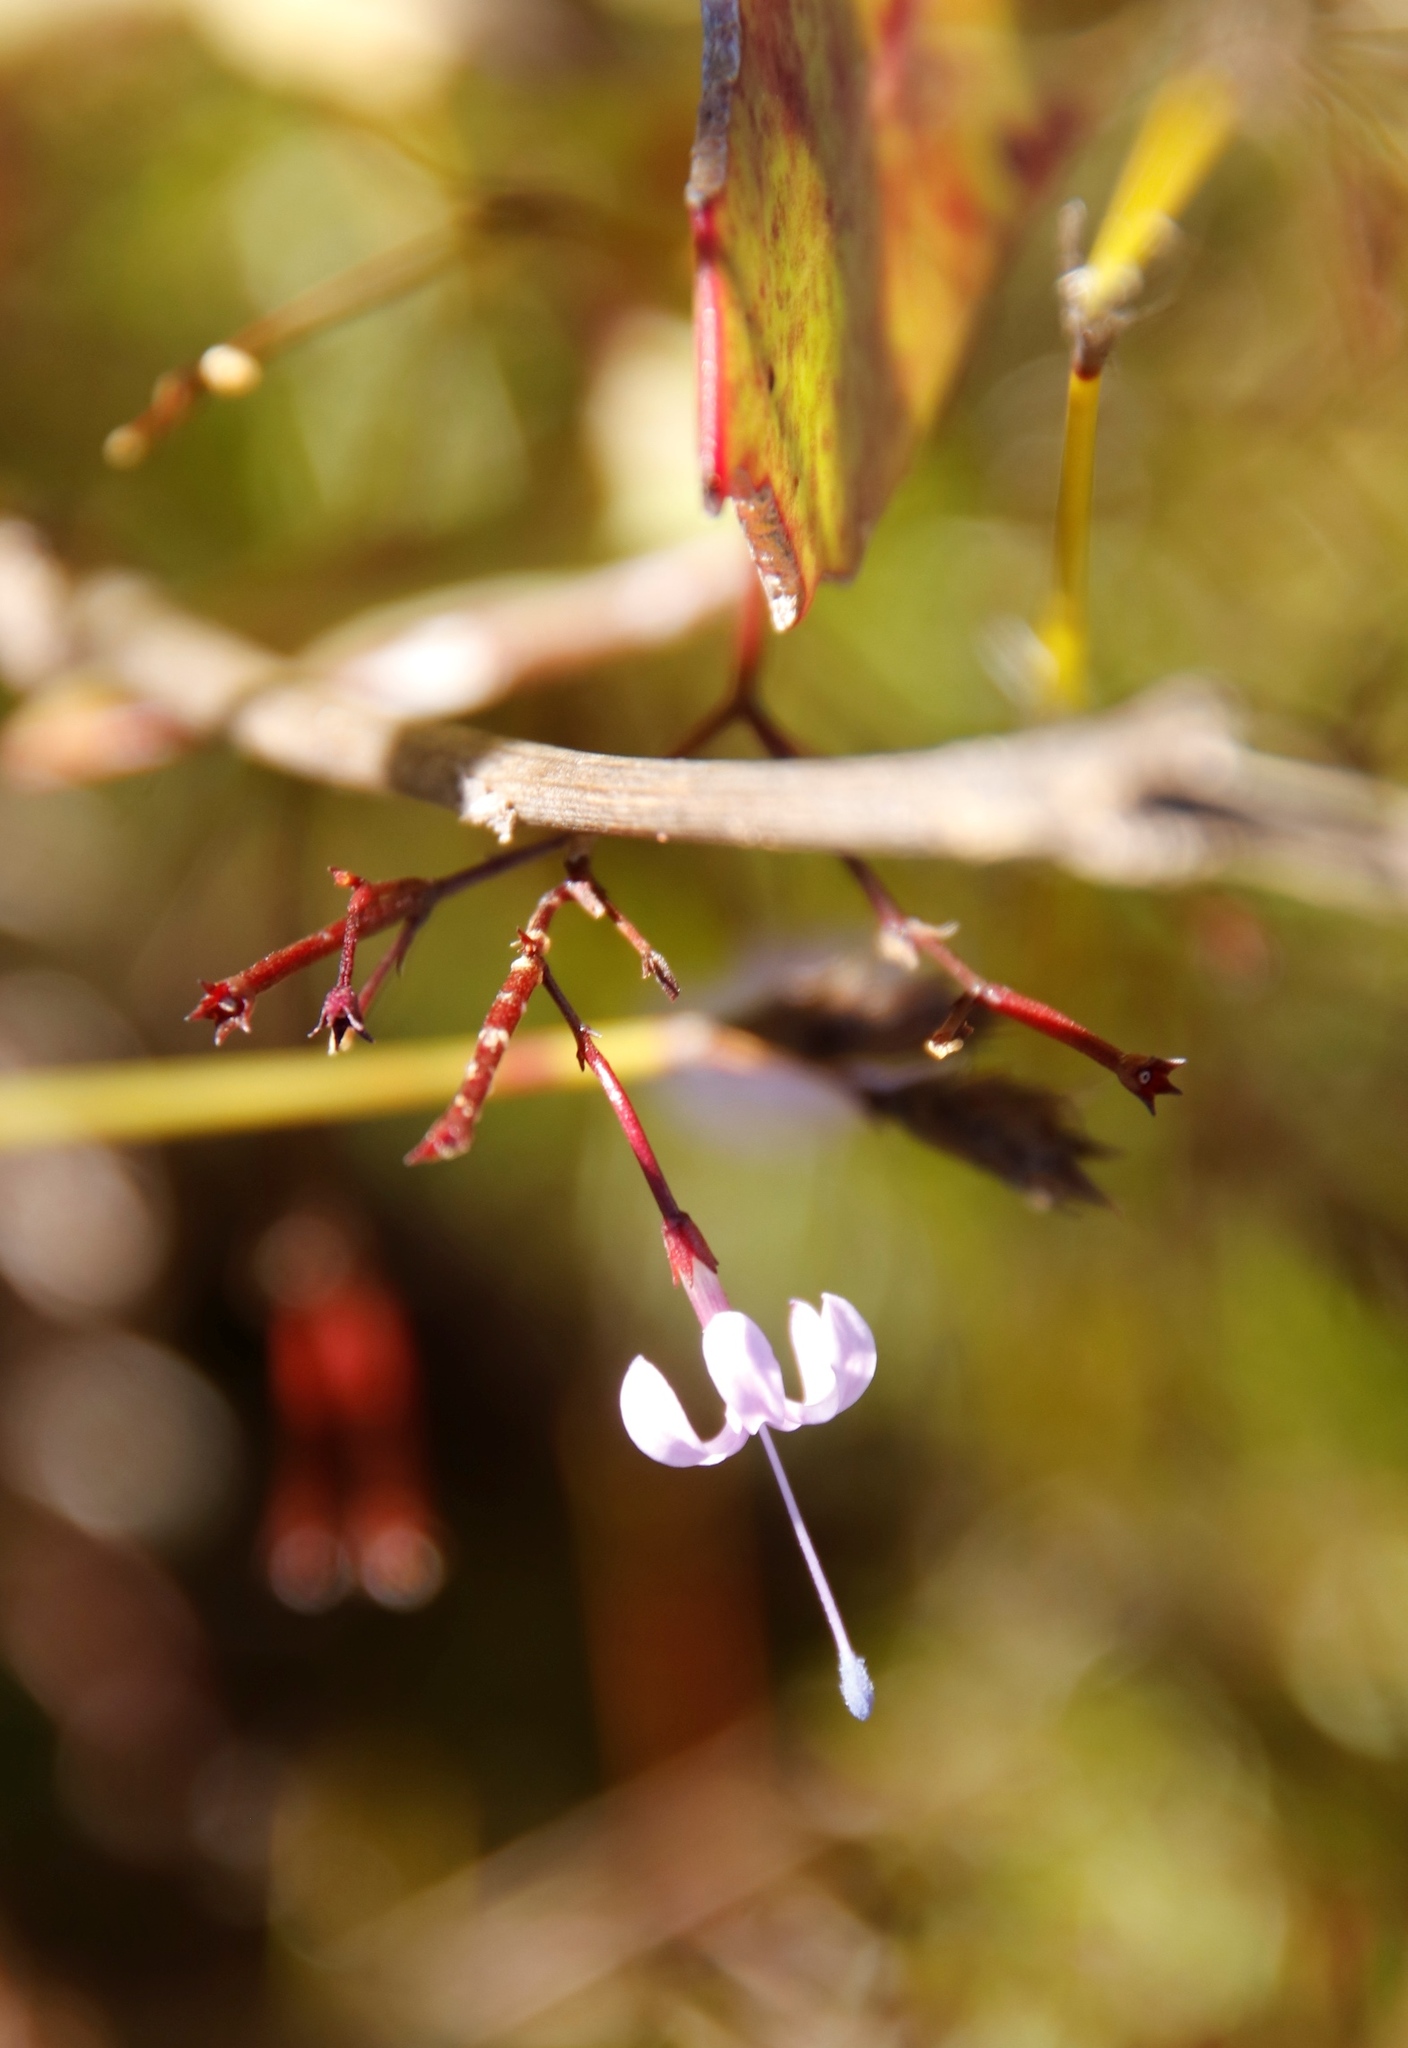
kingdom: Plantae
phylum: Tracheophyta
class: Magnoliopsida
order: Asterales
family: Campanulaceae
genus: Prismatocarpus
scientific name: Prismatocarpus diffusus
